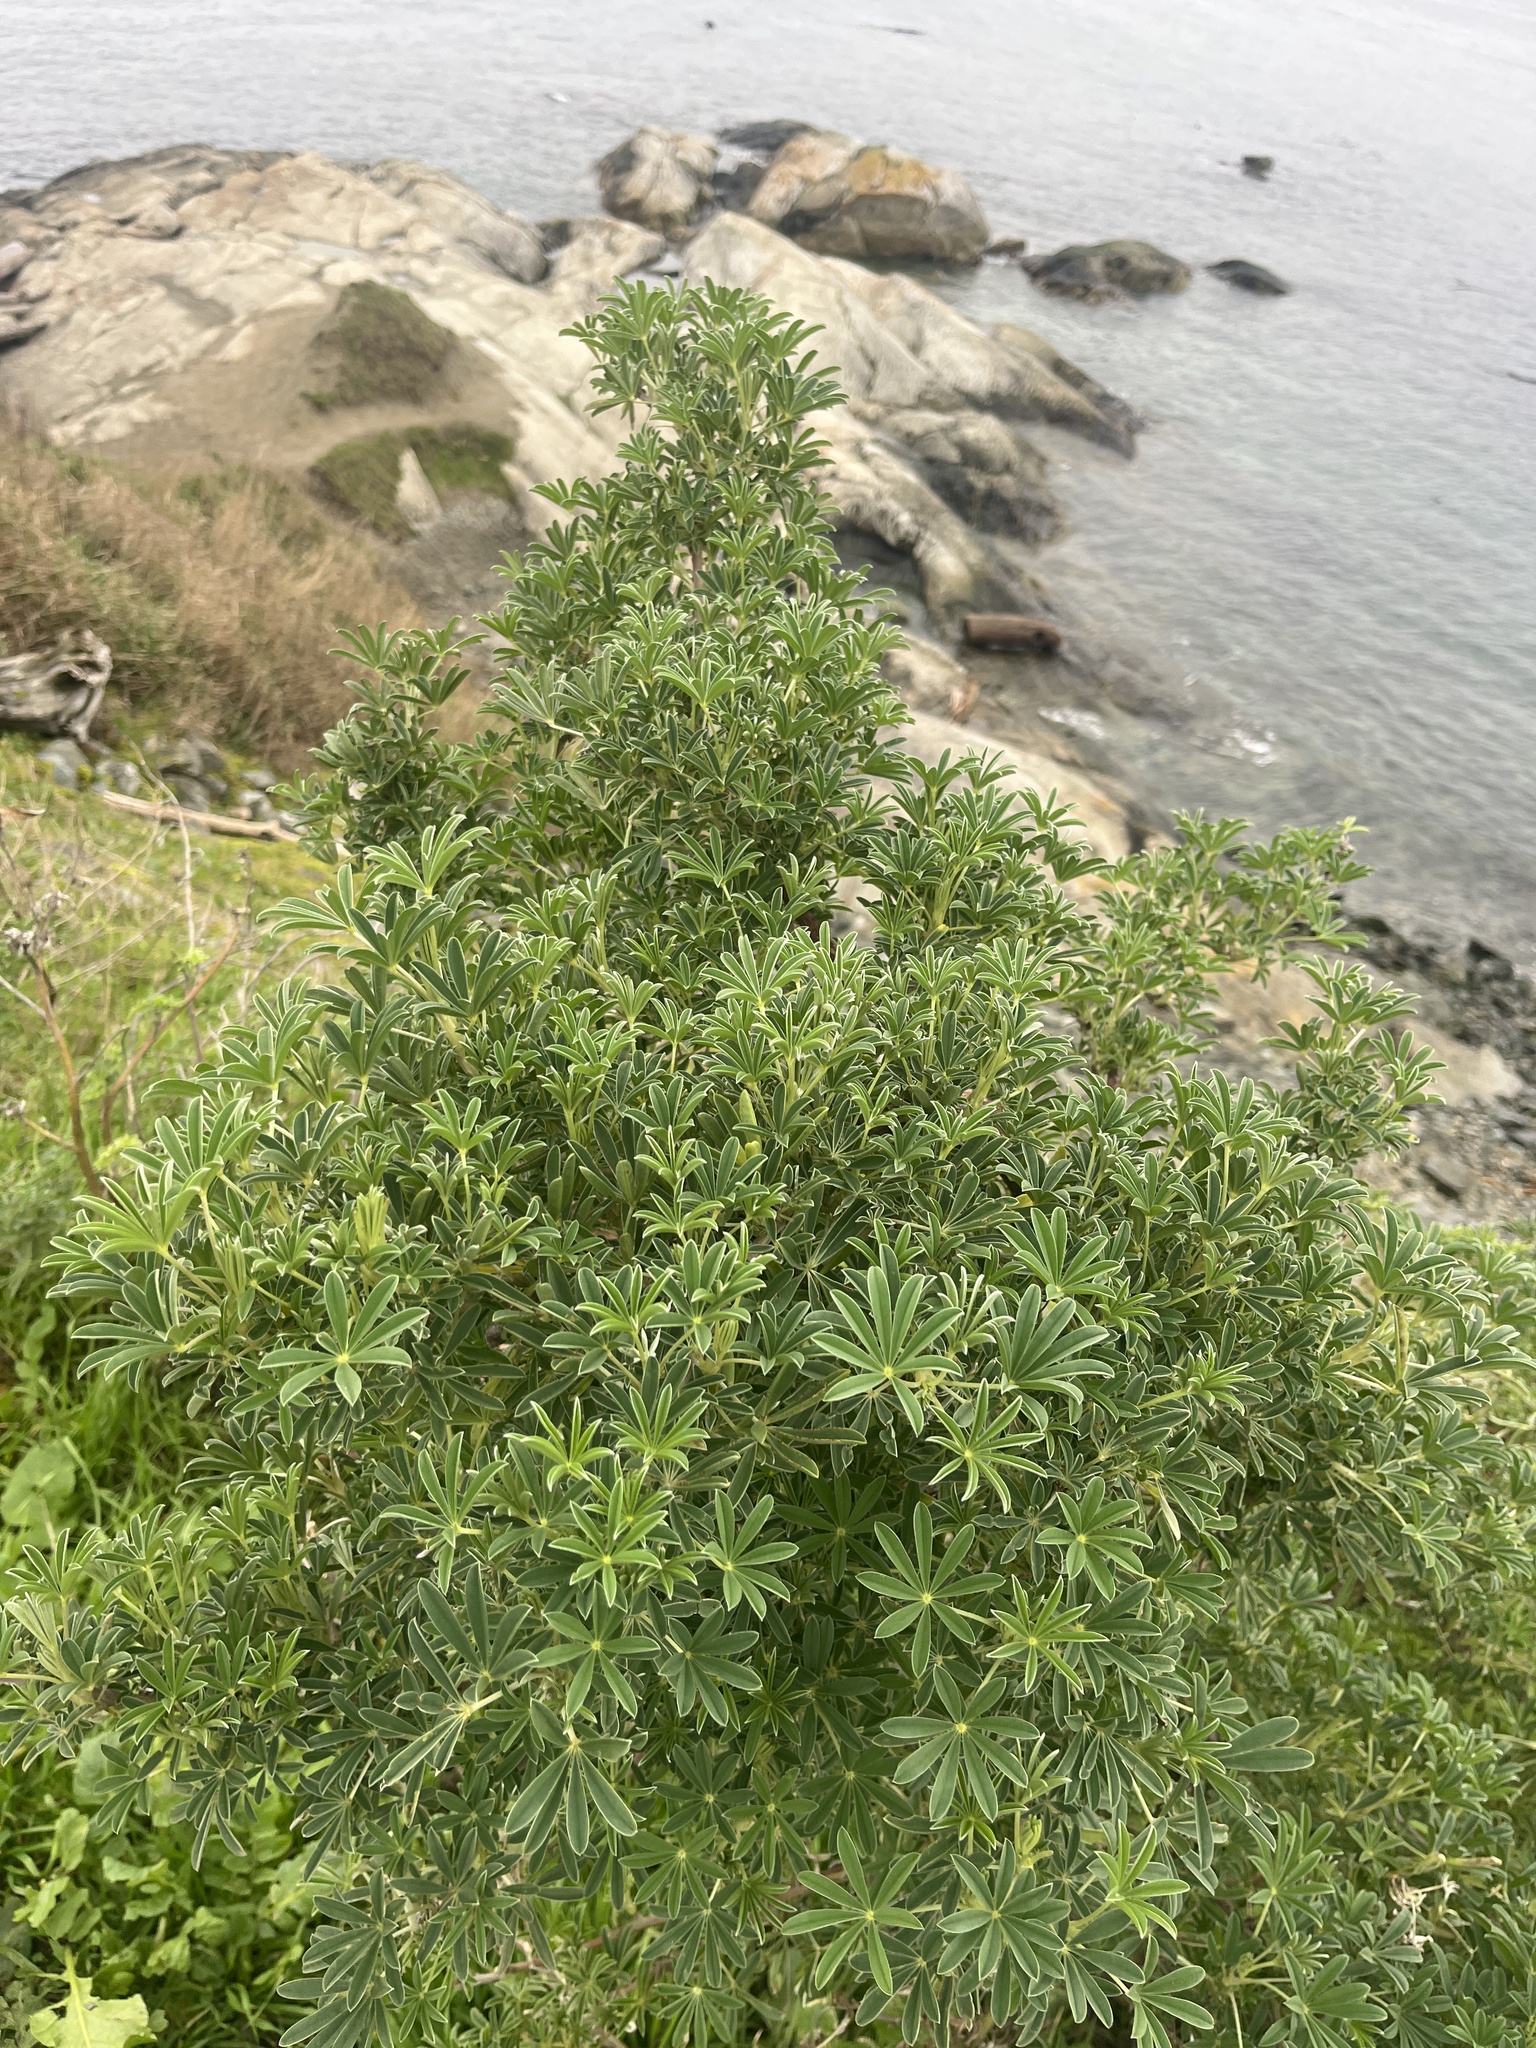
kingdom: Plantae
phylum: Tracheophyta
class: Magnoliopsida
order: Fabales
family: Fabaceae
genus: Lupinus
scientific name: Lupinus arboreus
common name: Yellow bush lupine
